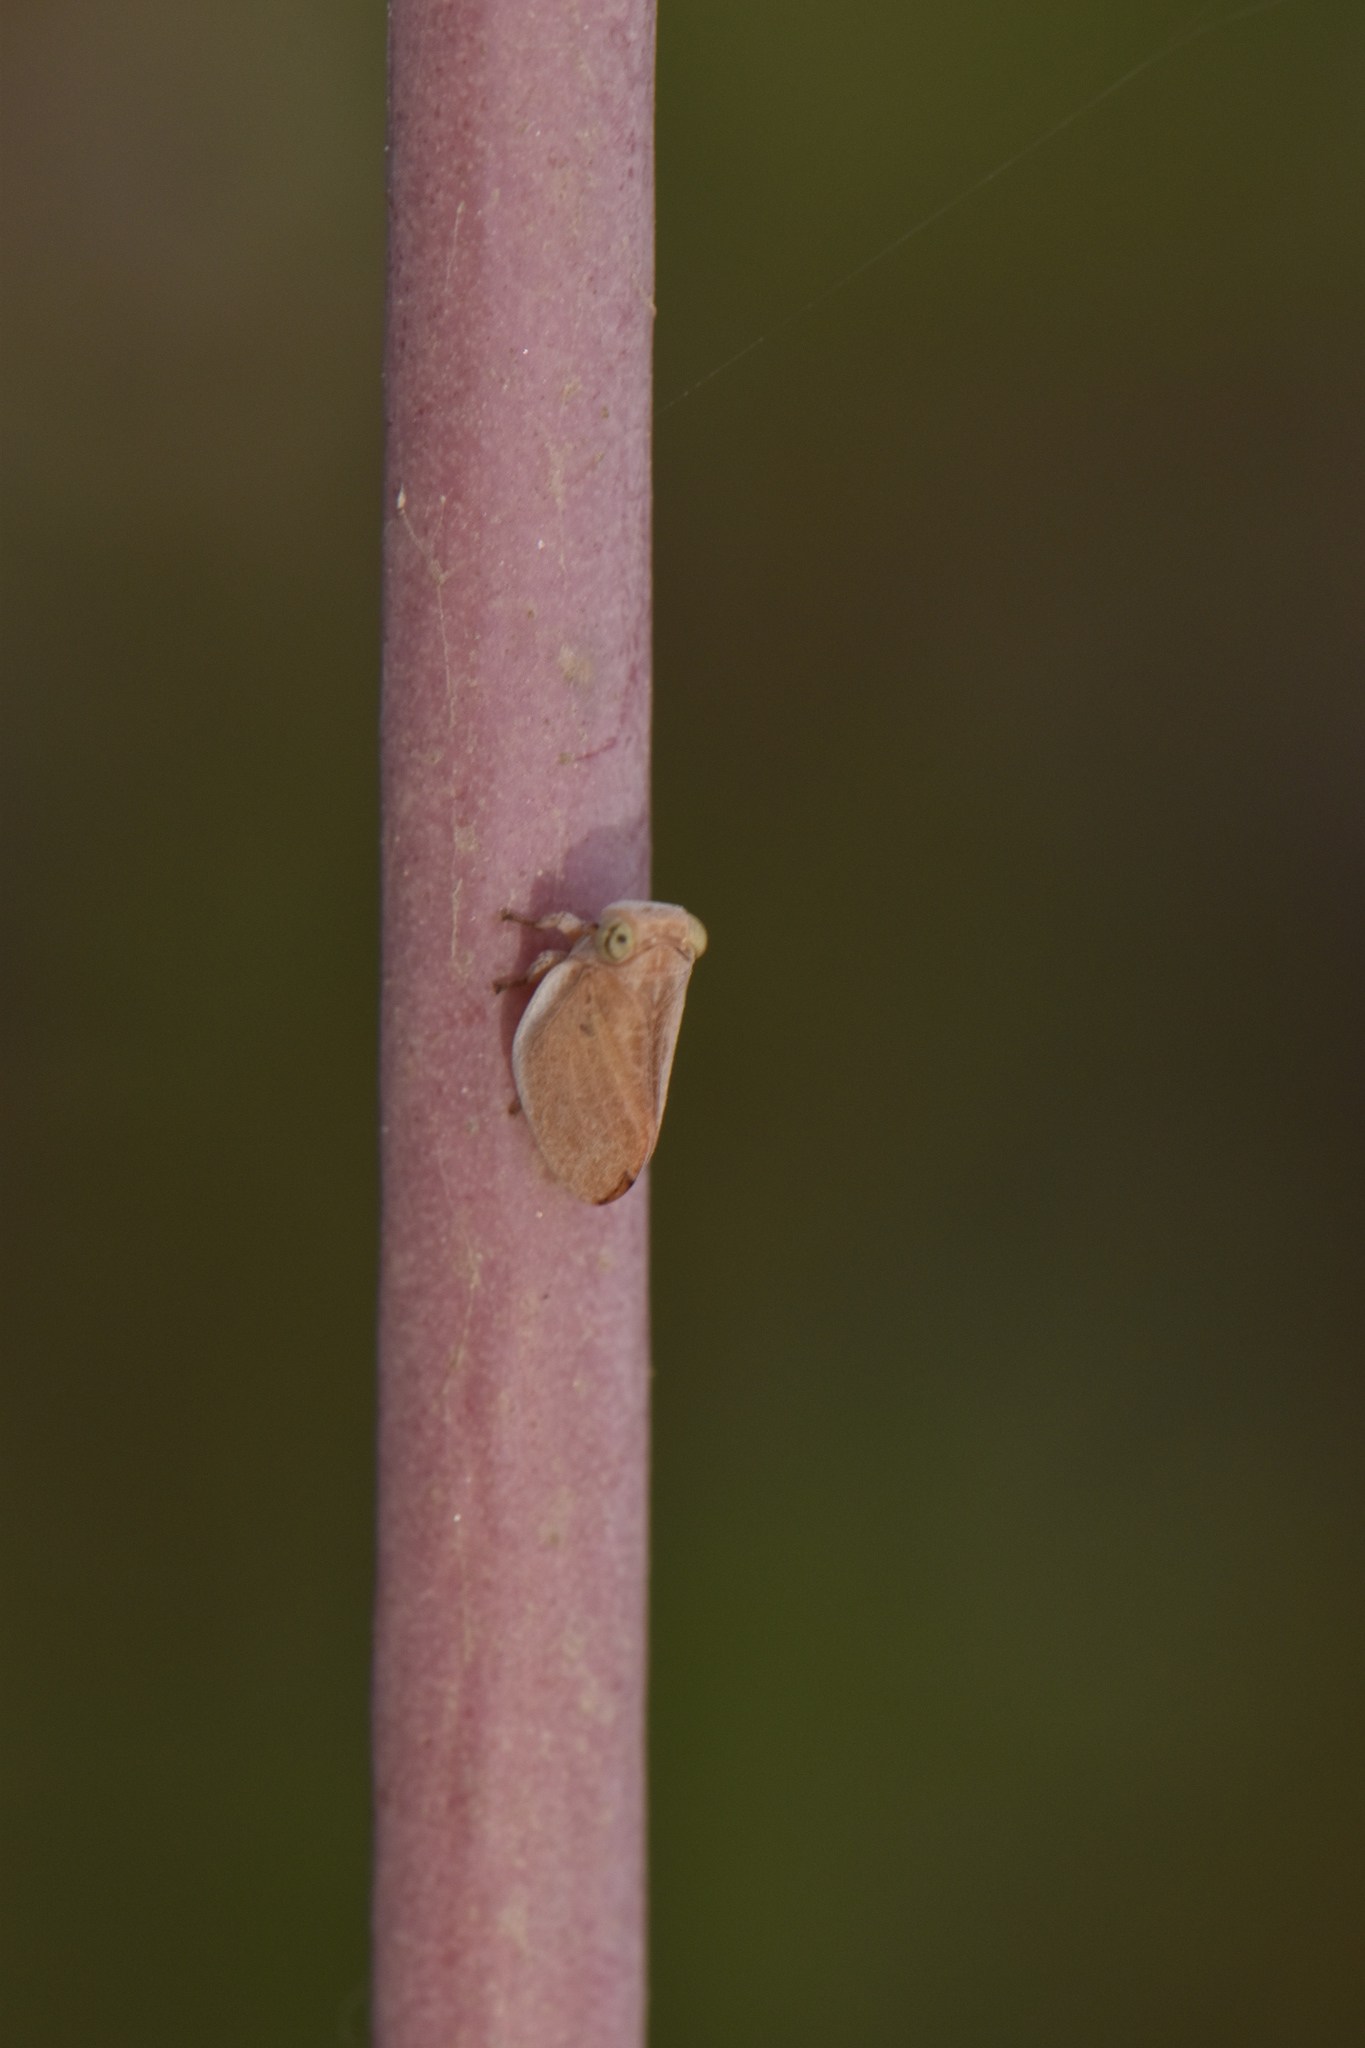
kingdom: Animalia
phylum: Arthropoda
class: Insecta
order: Hemiptera
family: Issidae
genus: Agalmatium
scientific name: Agalmatium bilobum
